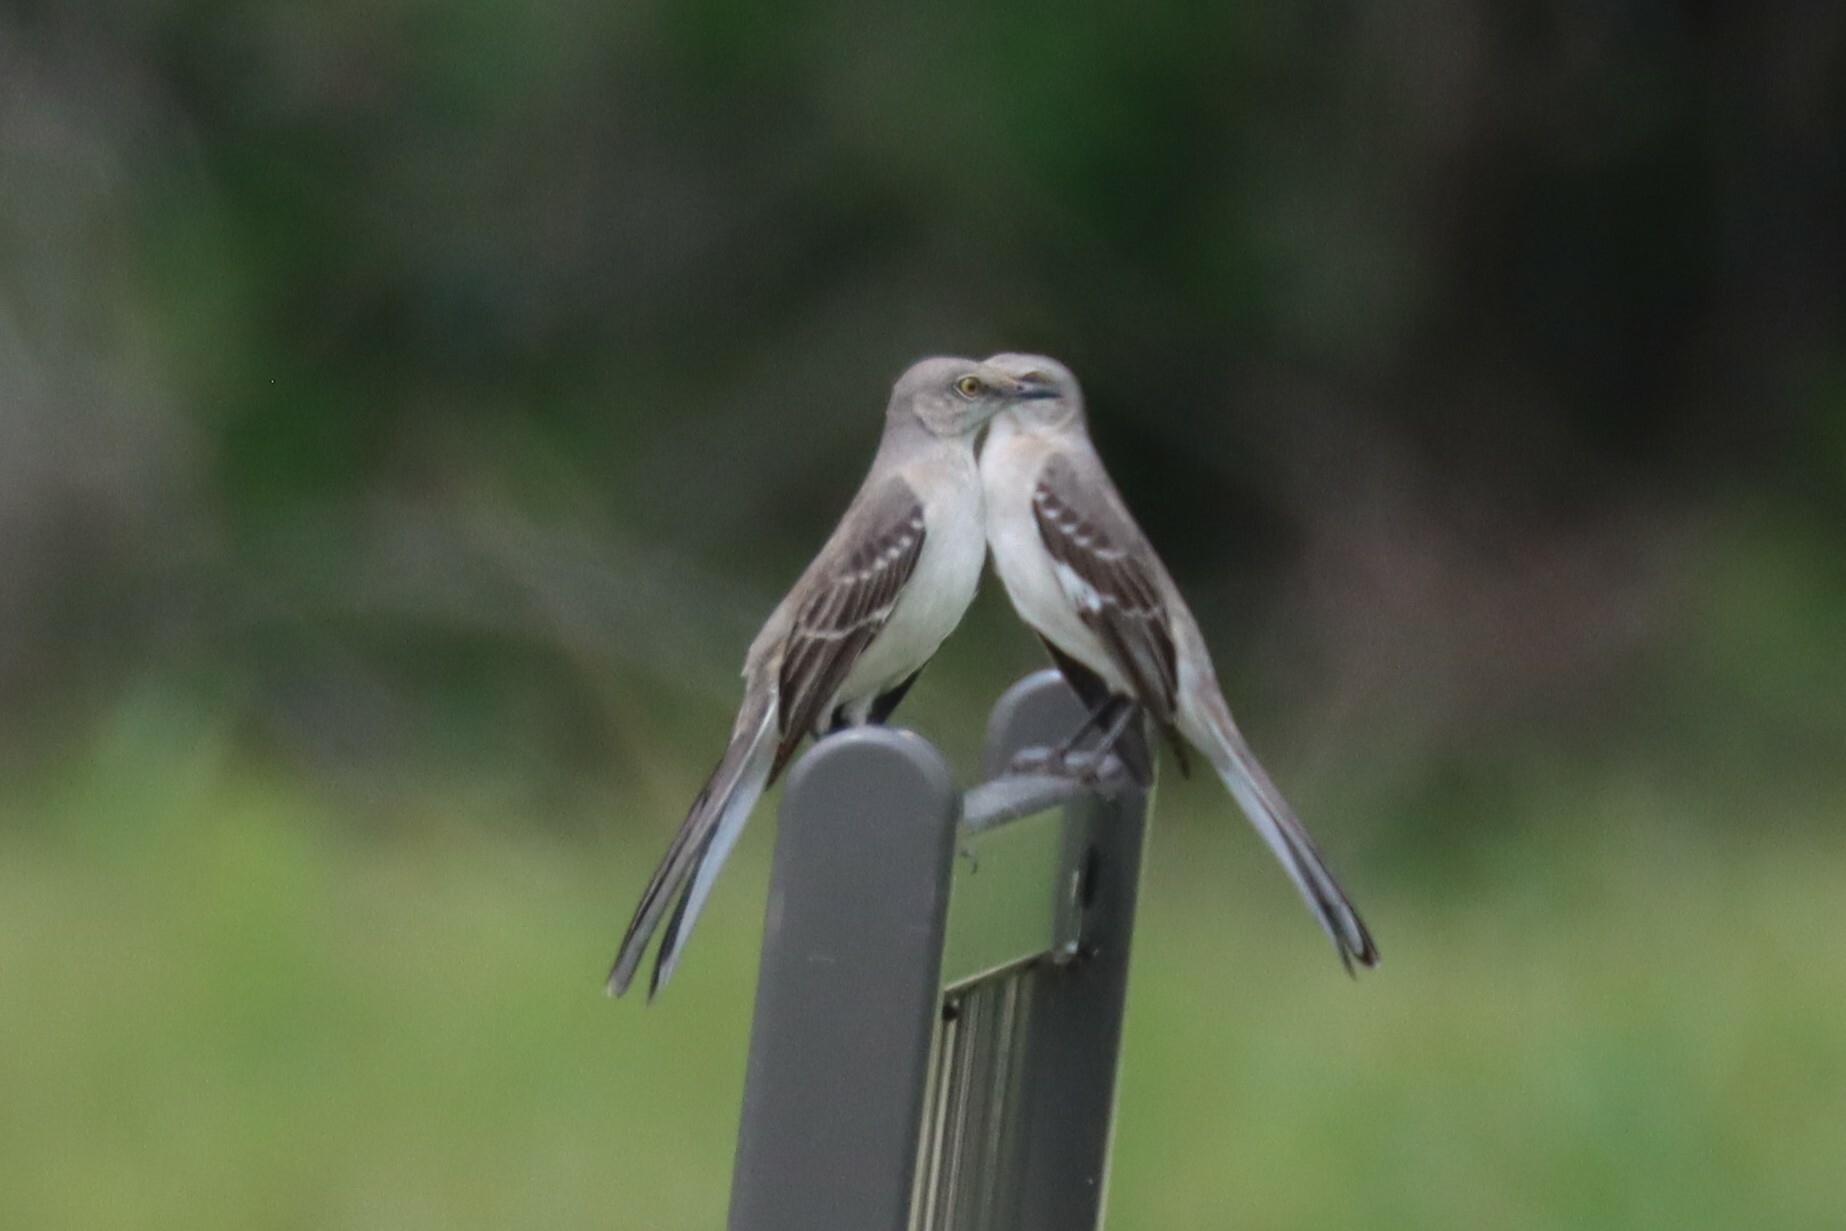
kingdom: Animalia
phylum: Chordata
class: Aves
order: Passeriformes
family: Mimidae
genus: Mimus
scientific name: Mimus polyglottos
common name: Northern mockingbird
